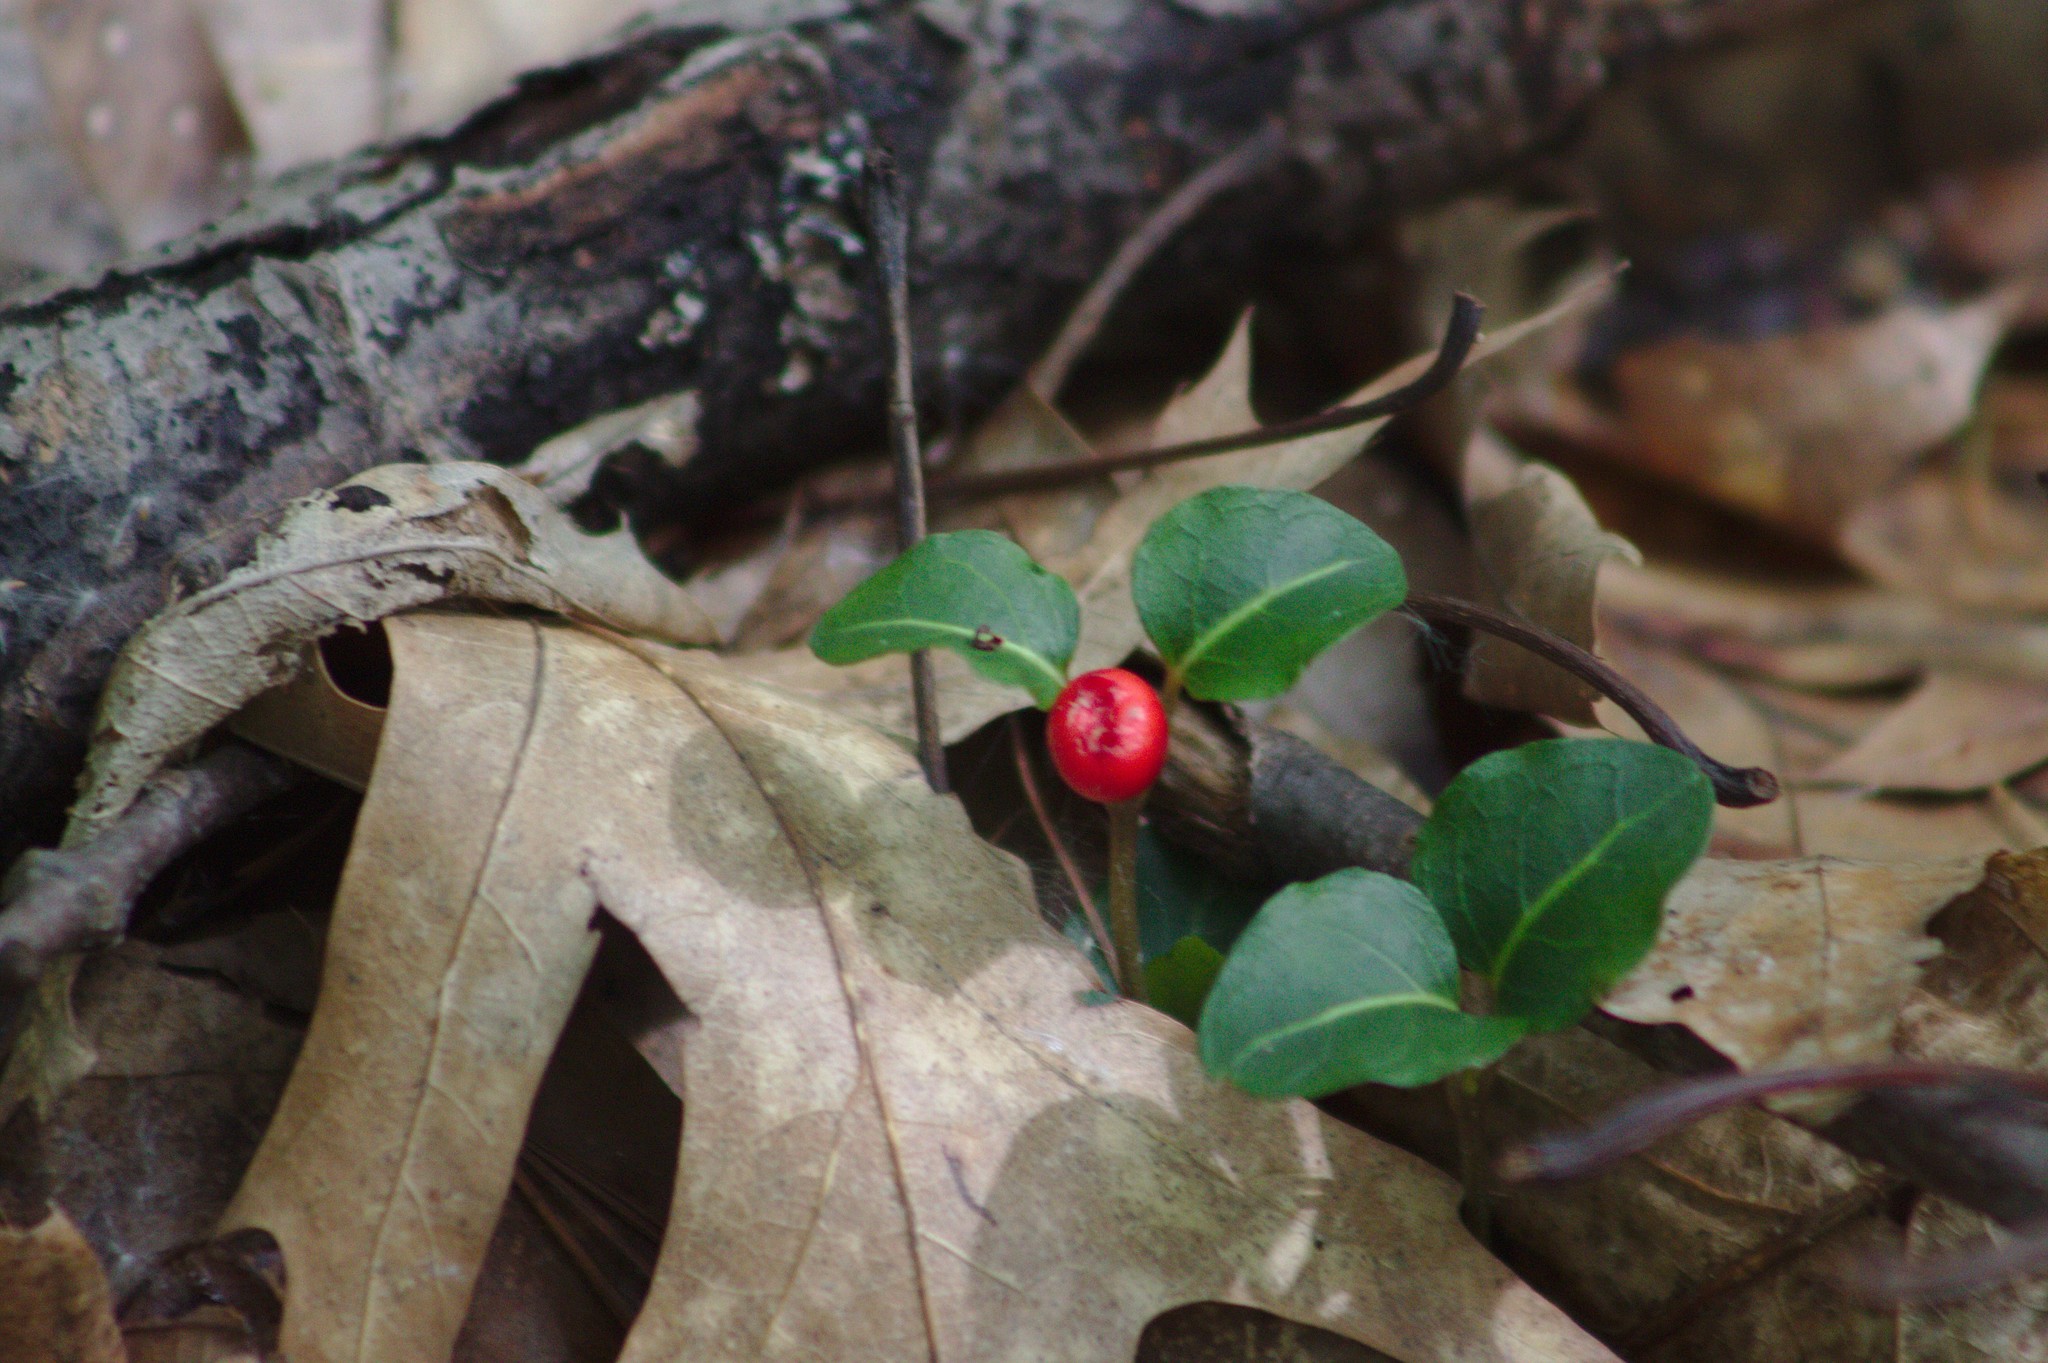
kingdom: Plantae
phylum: Tracheophyta
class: Magnoliopsida
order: Gentianales
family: Rubiaceae
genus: Mitchella
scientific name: Mitchella repens
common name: Partridge-berry
